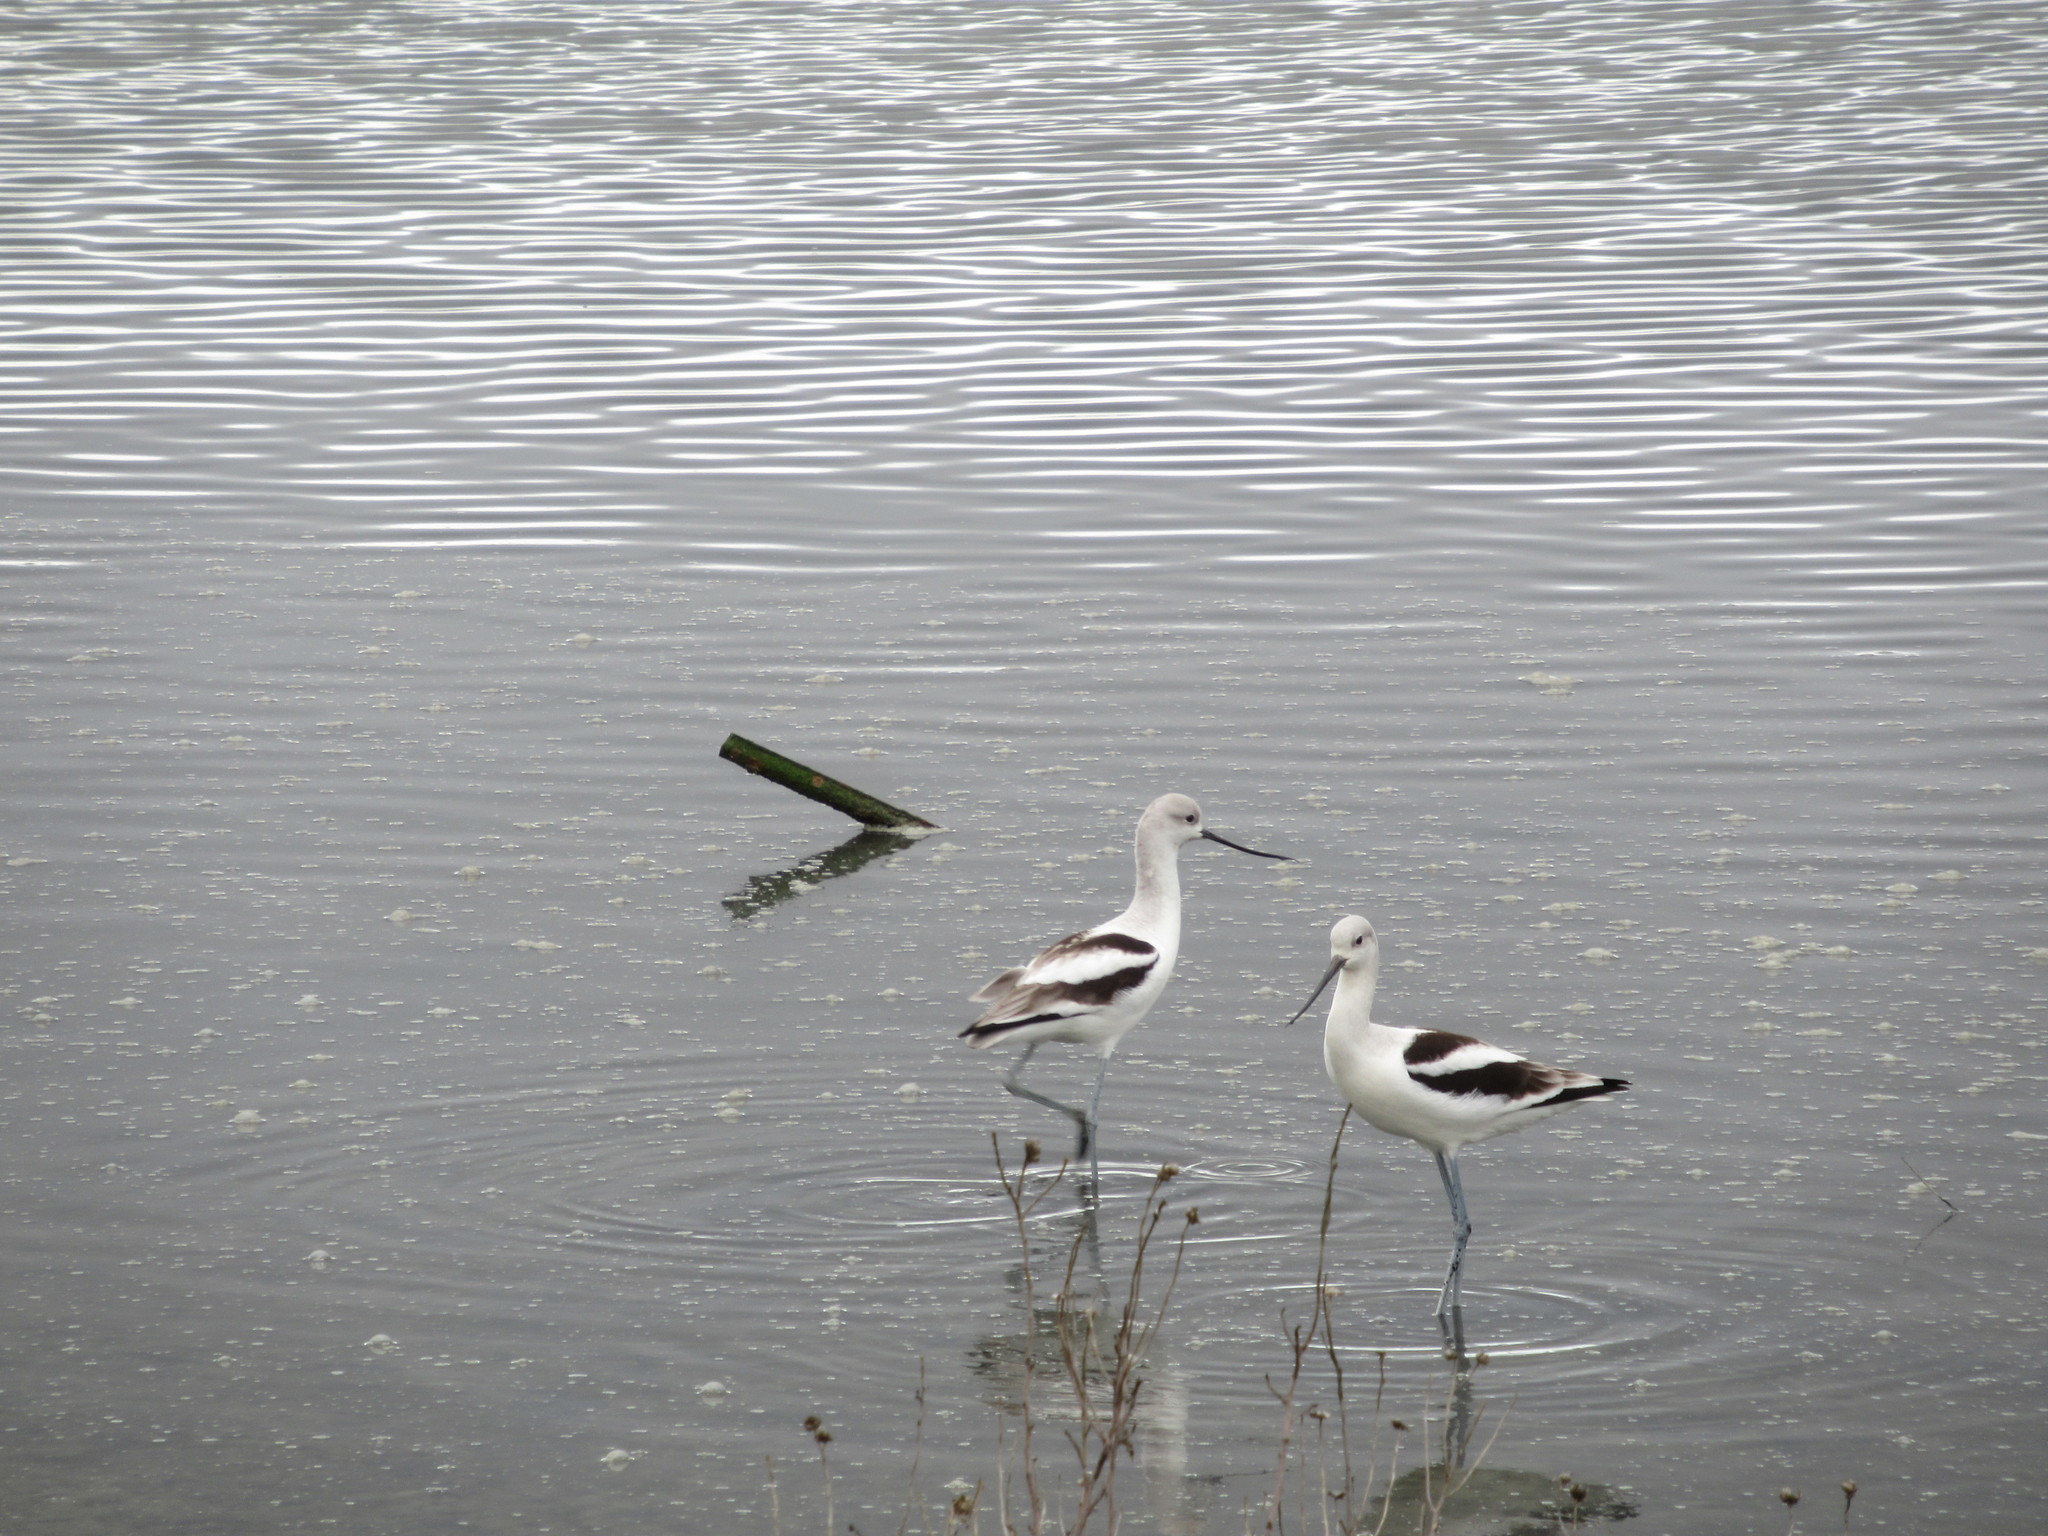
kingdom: Animalia
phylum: Chordata
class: Aves
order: Charadriiformes
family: Recurvirostridae
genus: Recurvirostra
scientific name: Recurvirostra americana
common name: American avocet
